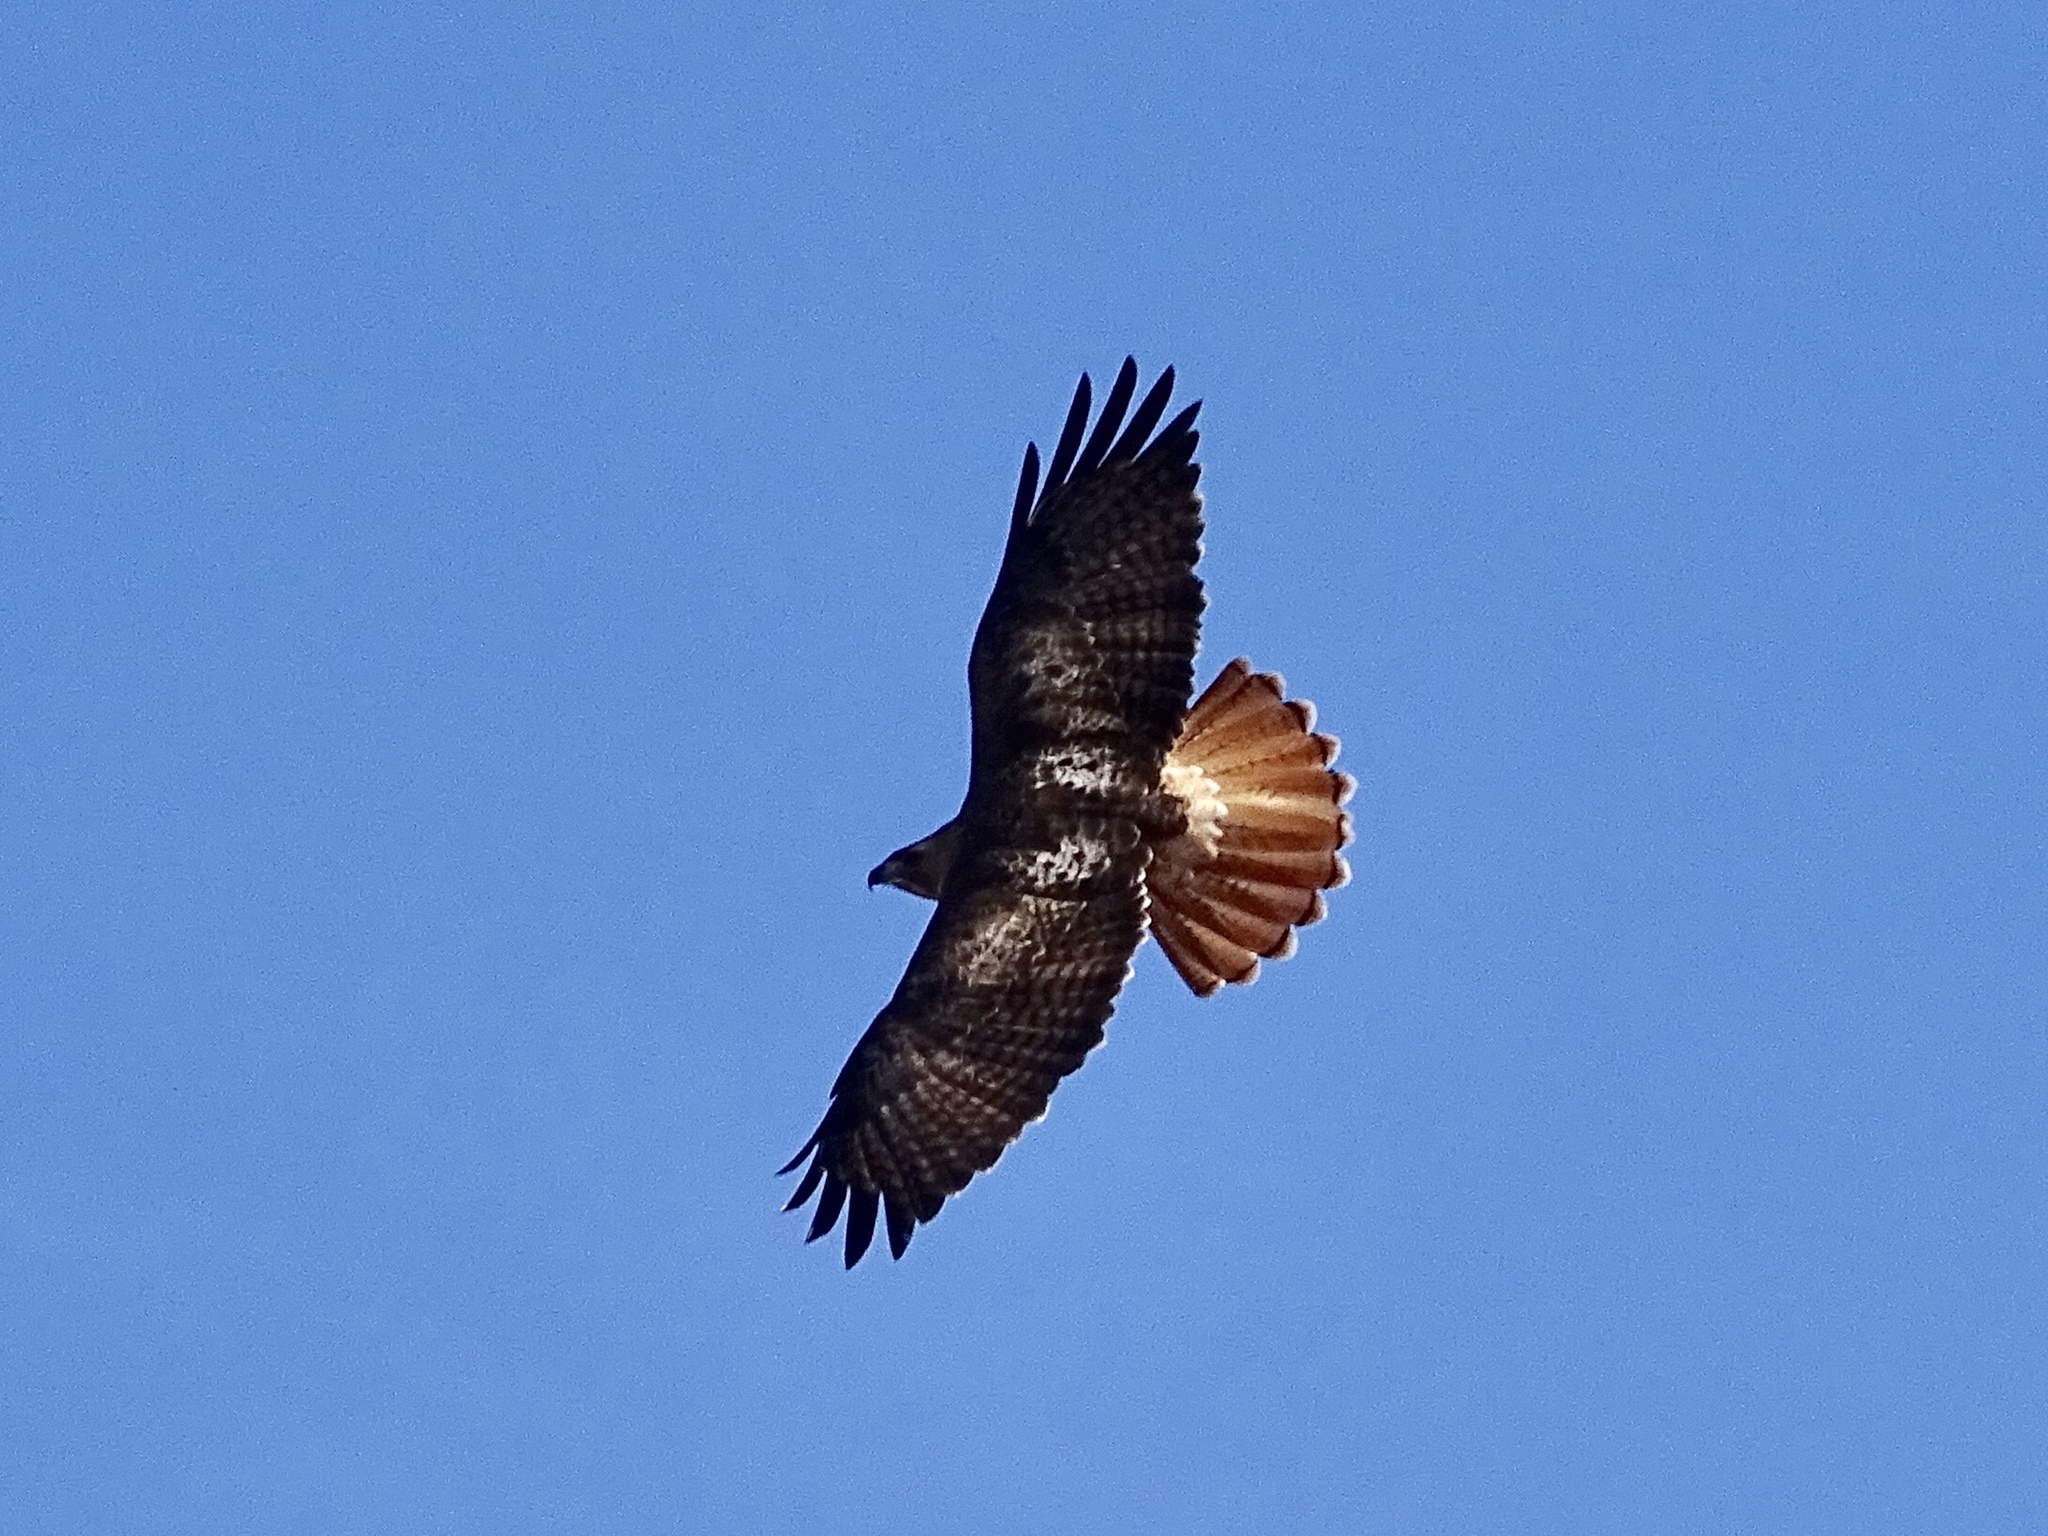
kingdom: Animalia
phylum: Chordata
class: Aves
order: Accipitriformes
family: Accipitridae
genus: Buteo
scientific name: Buteo jamaicensis
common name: Red-tailed hawk
